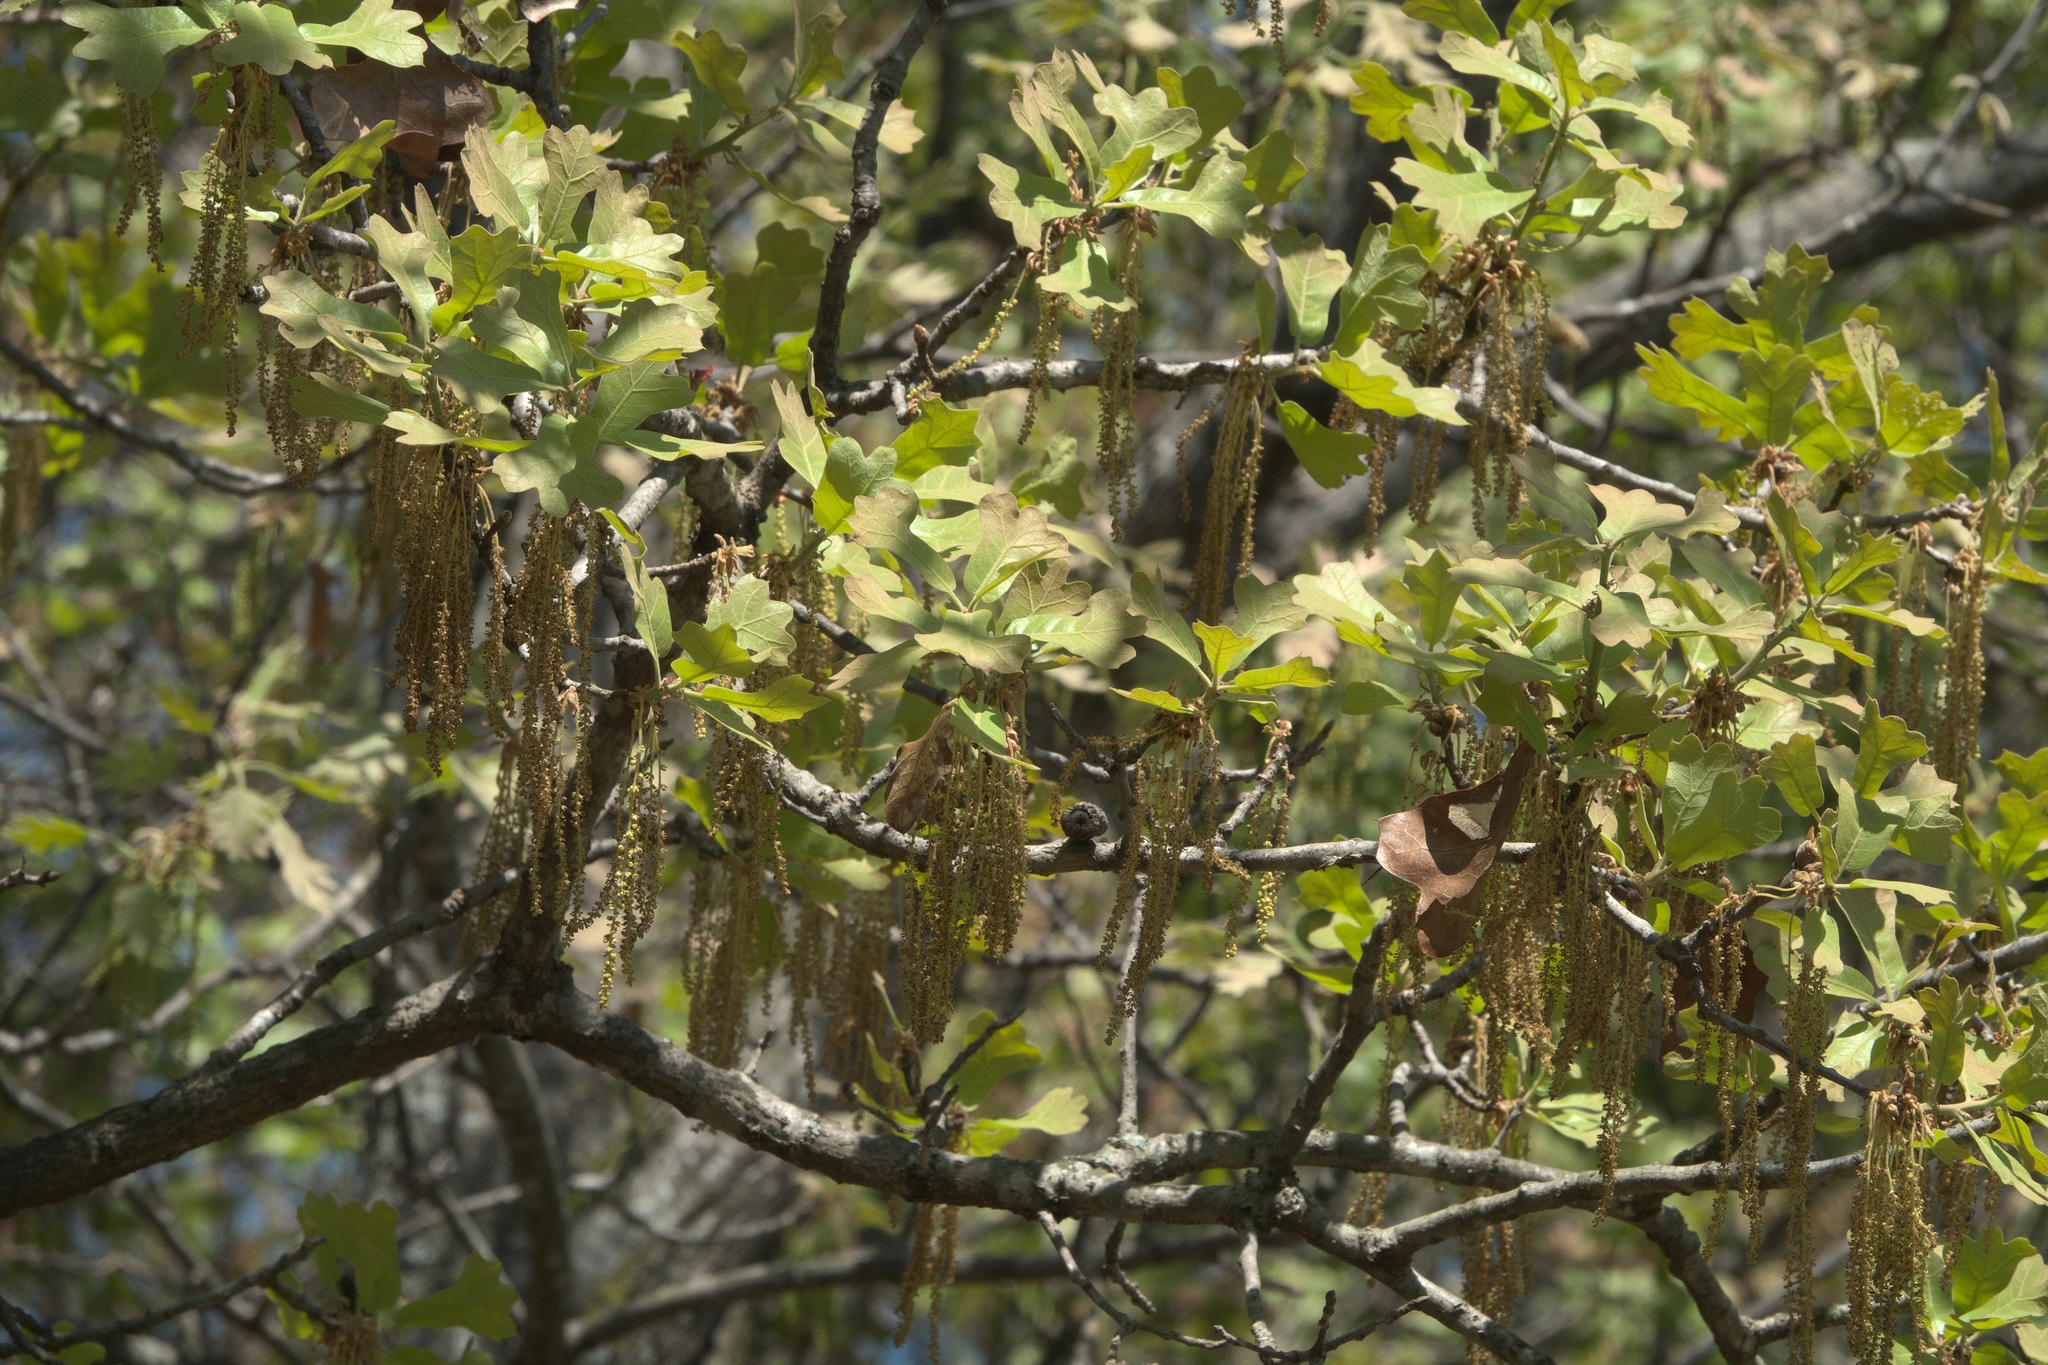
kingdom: Plantae
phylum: Tracheophyta
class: Magnoliopsida
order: Fagales
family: Fagaceae
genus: Quercus
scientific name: Quercus marilandica
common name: Blackjack oak
